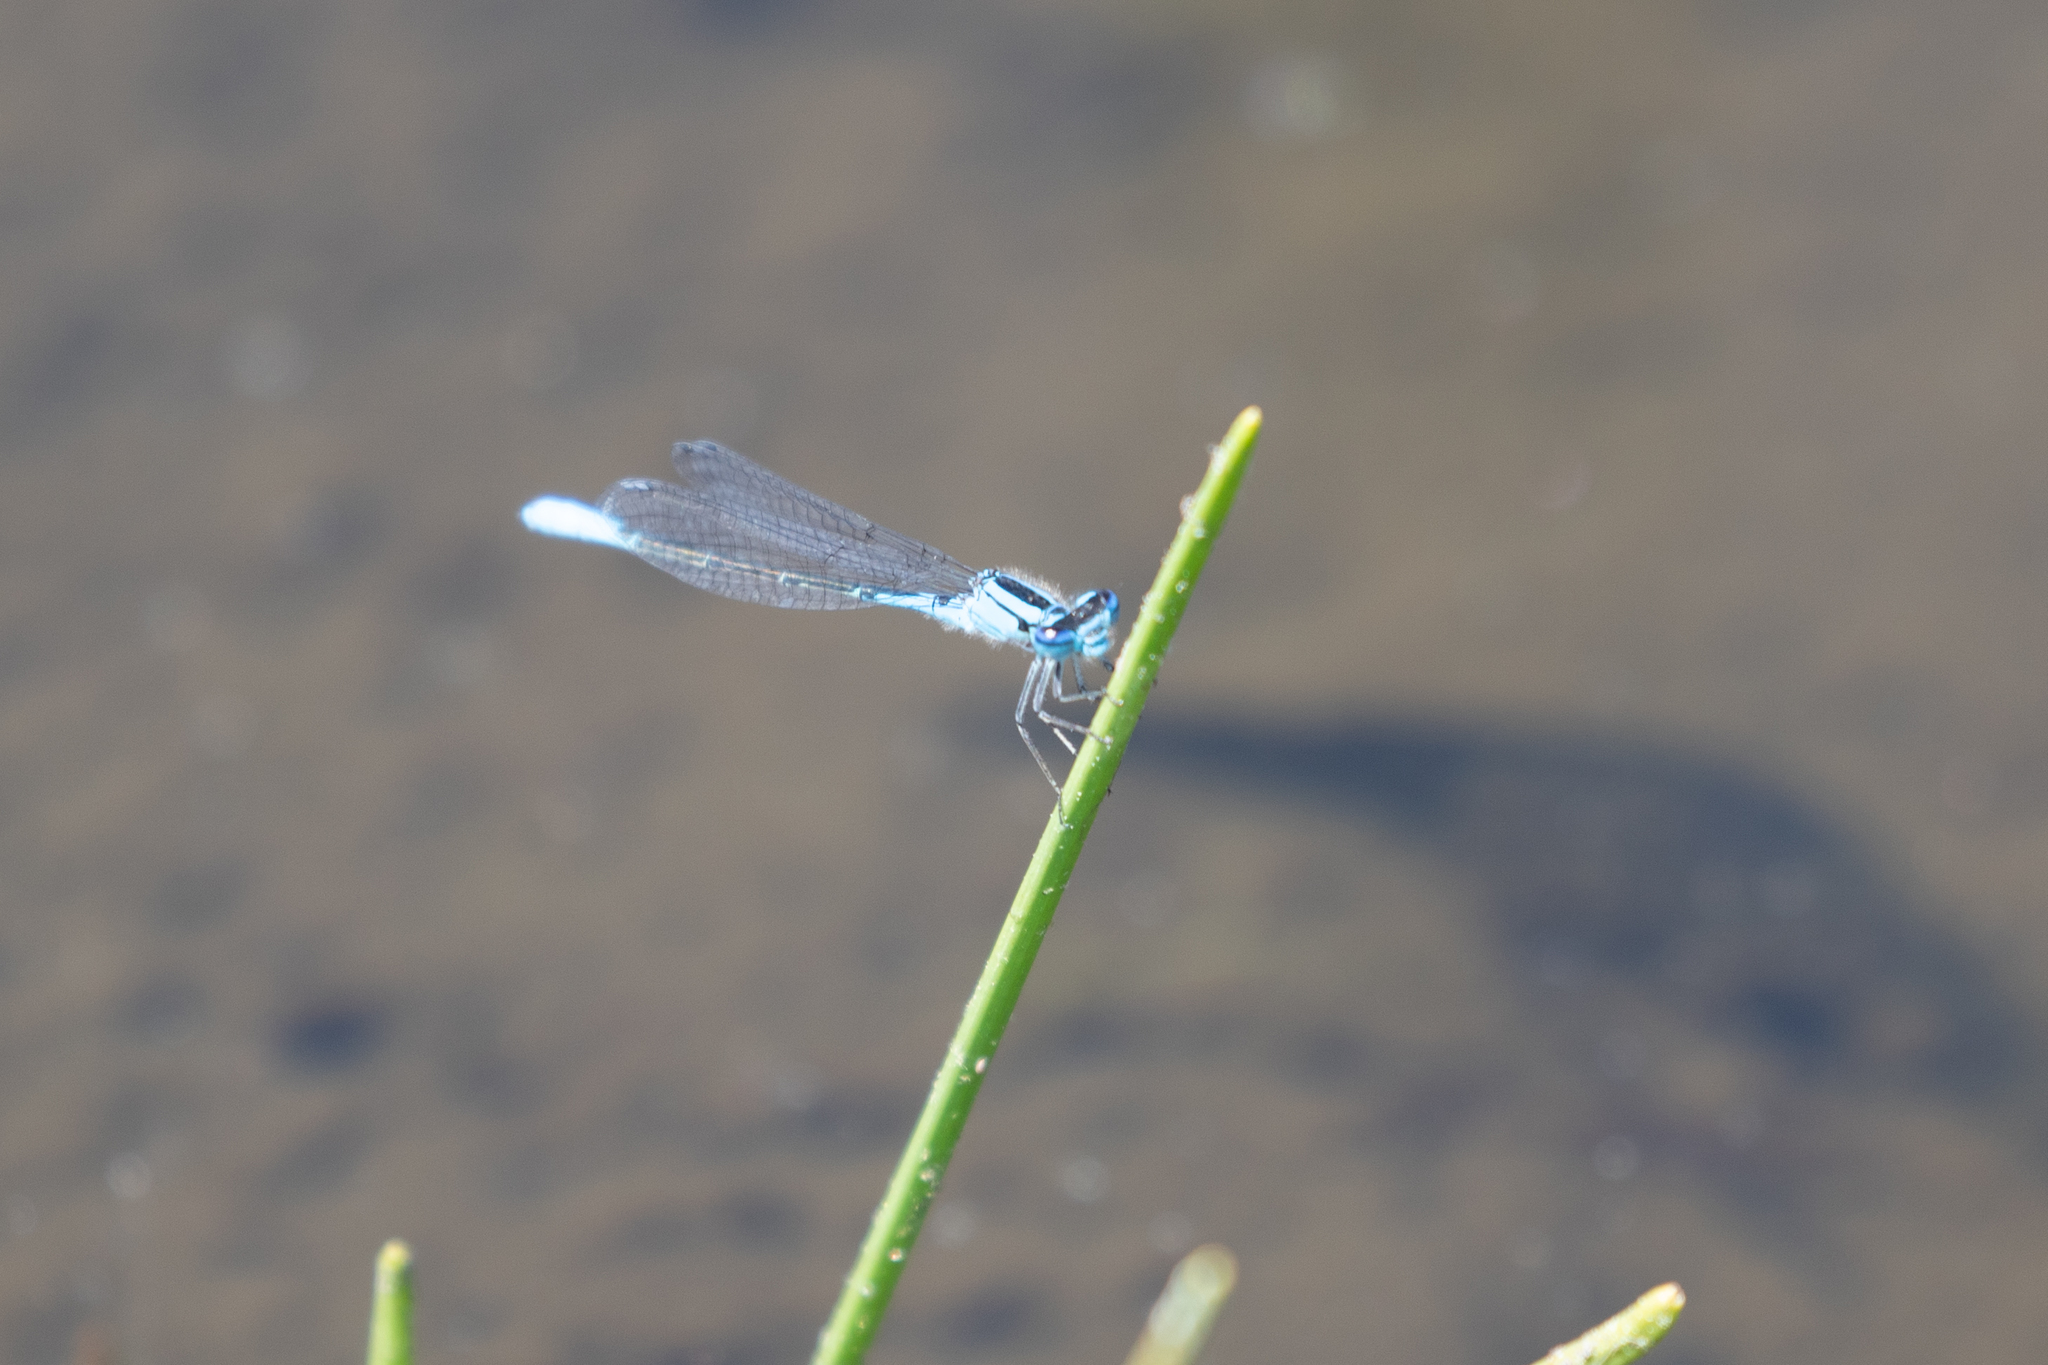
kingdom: Animalia
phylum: Arthropoda
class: Insecta
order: Odonata
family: Coenagrionidae
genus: Enallagma
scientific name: Enallagma aspersum
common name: Azure bluet
